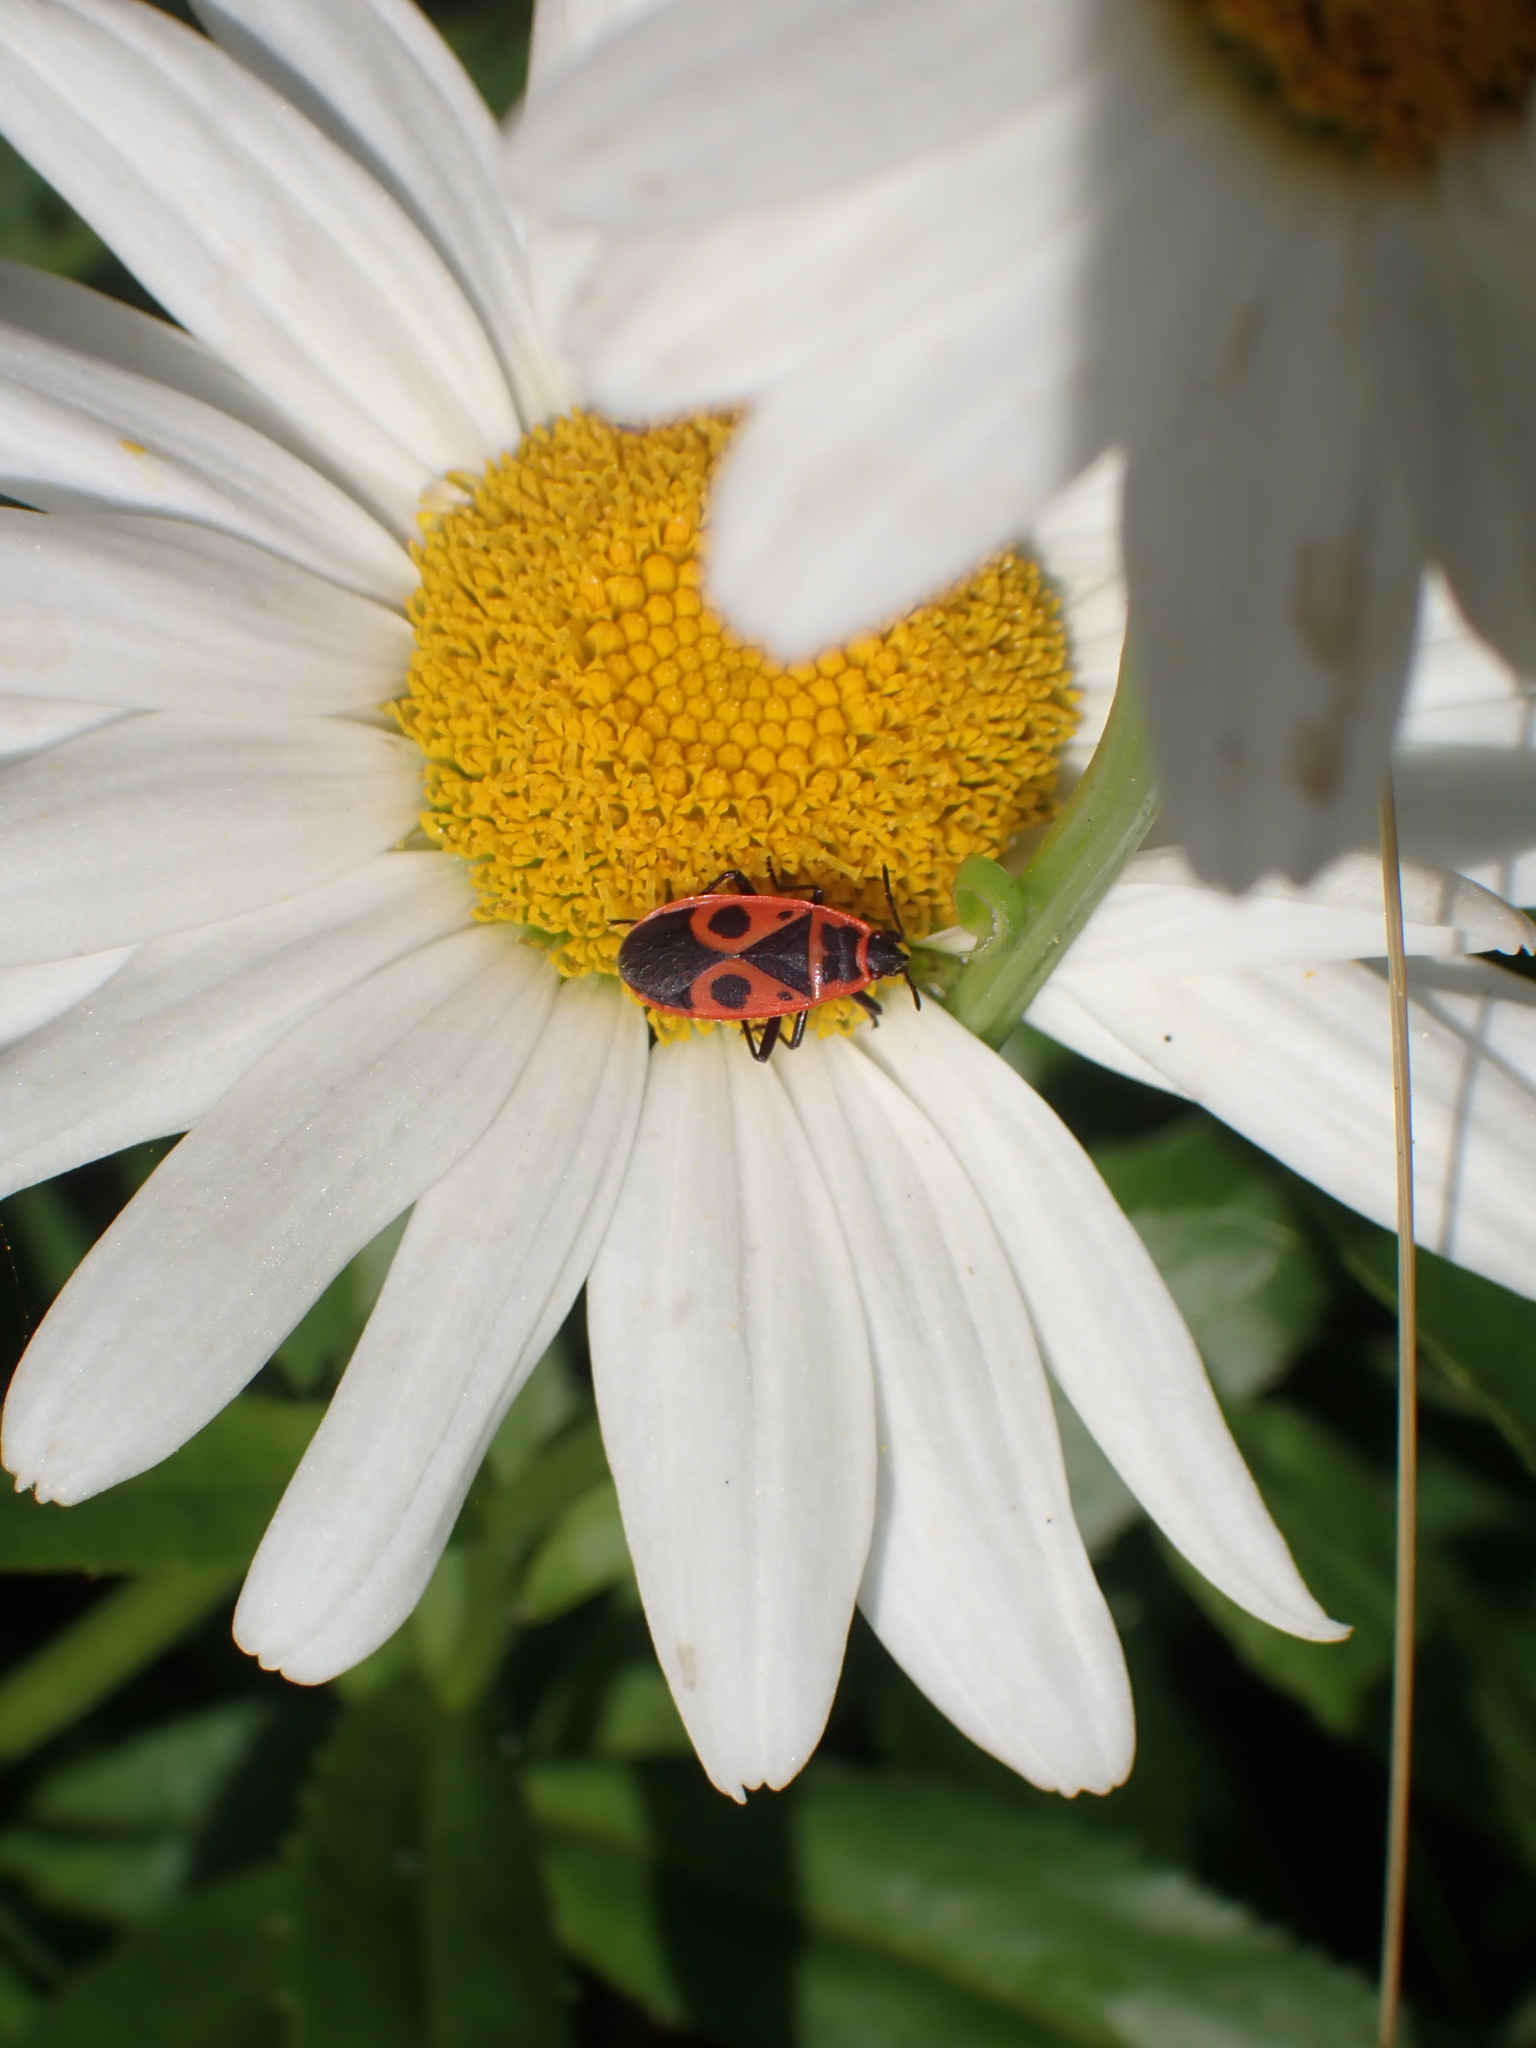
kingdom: Animalia
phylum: Arthropoda
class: Insecta
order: Hemiptera
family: Pyrrhocoridae
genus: Pyrrhocoris
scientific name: Pyrrhocoris apterus
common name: Firebug
